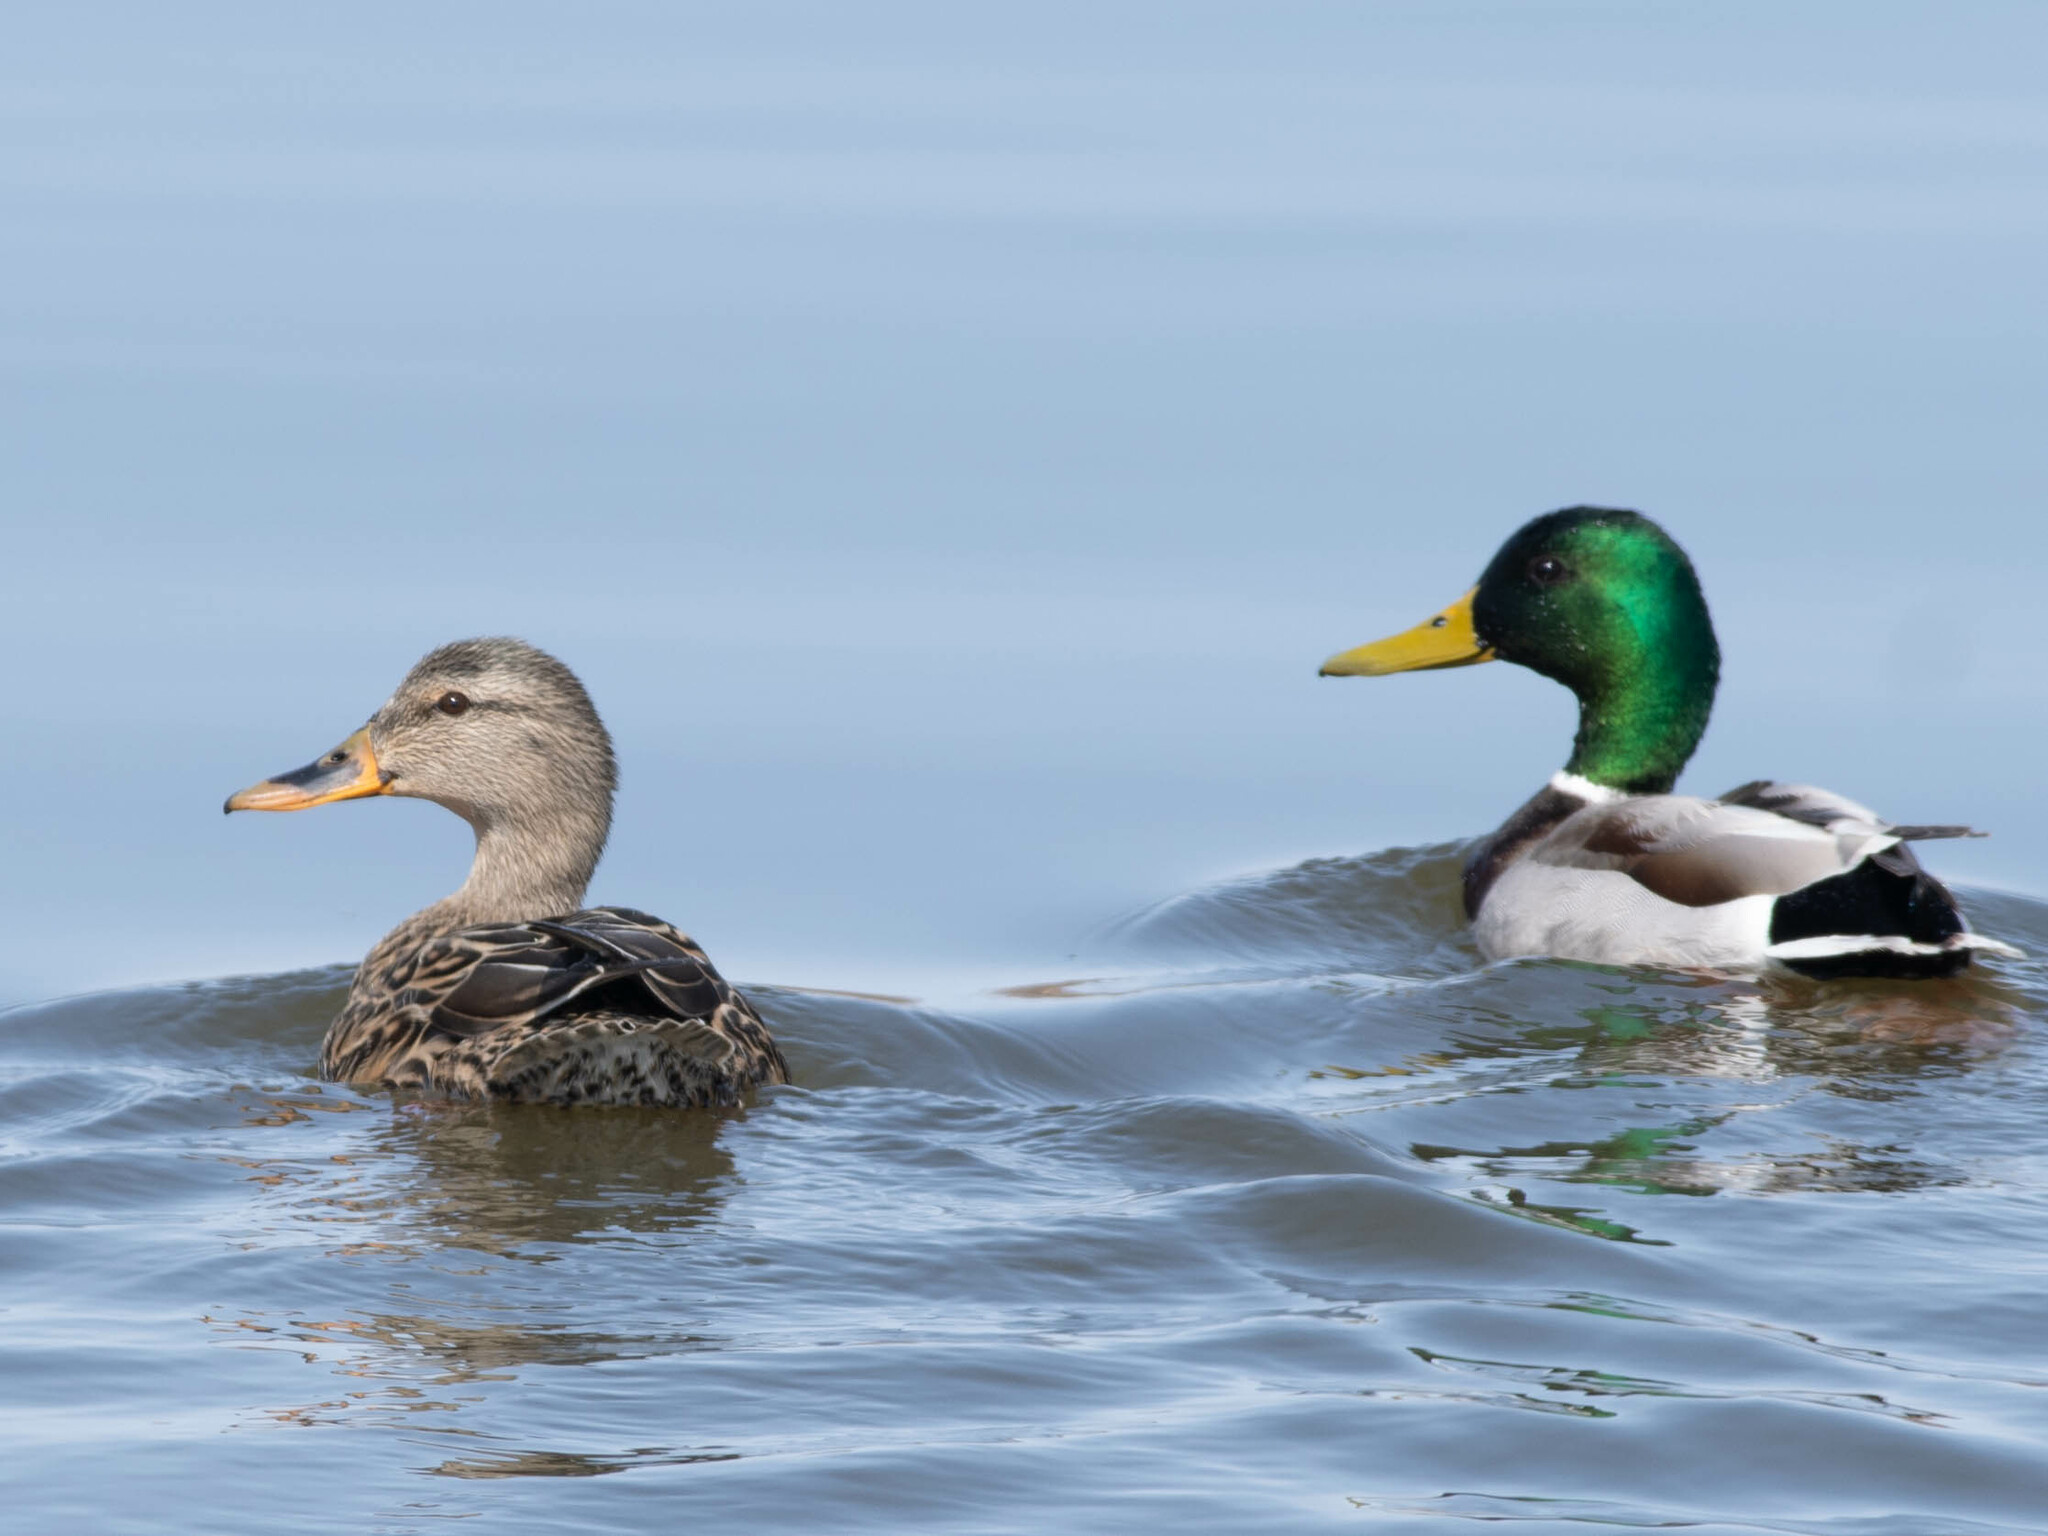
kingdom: Animalia
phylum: Chordata
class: Aves
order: Anseriformes
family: Anatidae
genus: Anas
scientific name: Anas platyrhynchos
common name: Mallard
